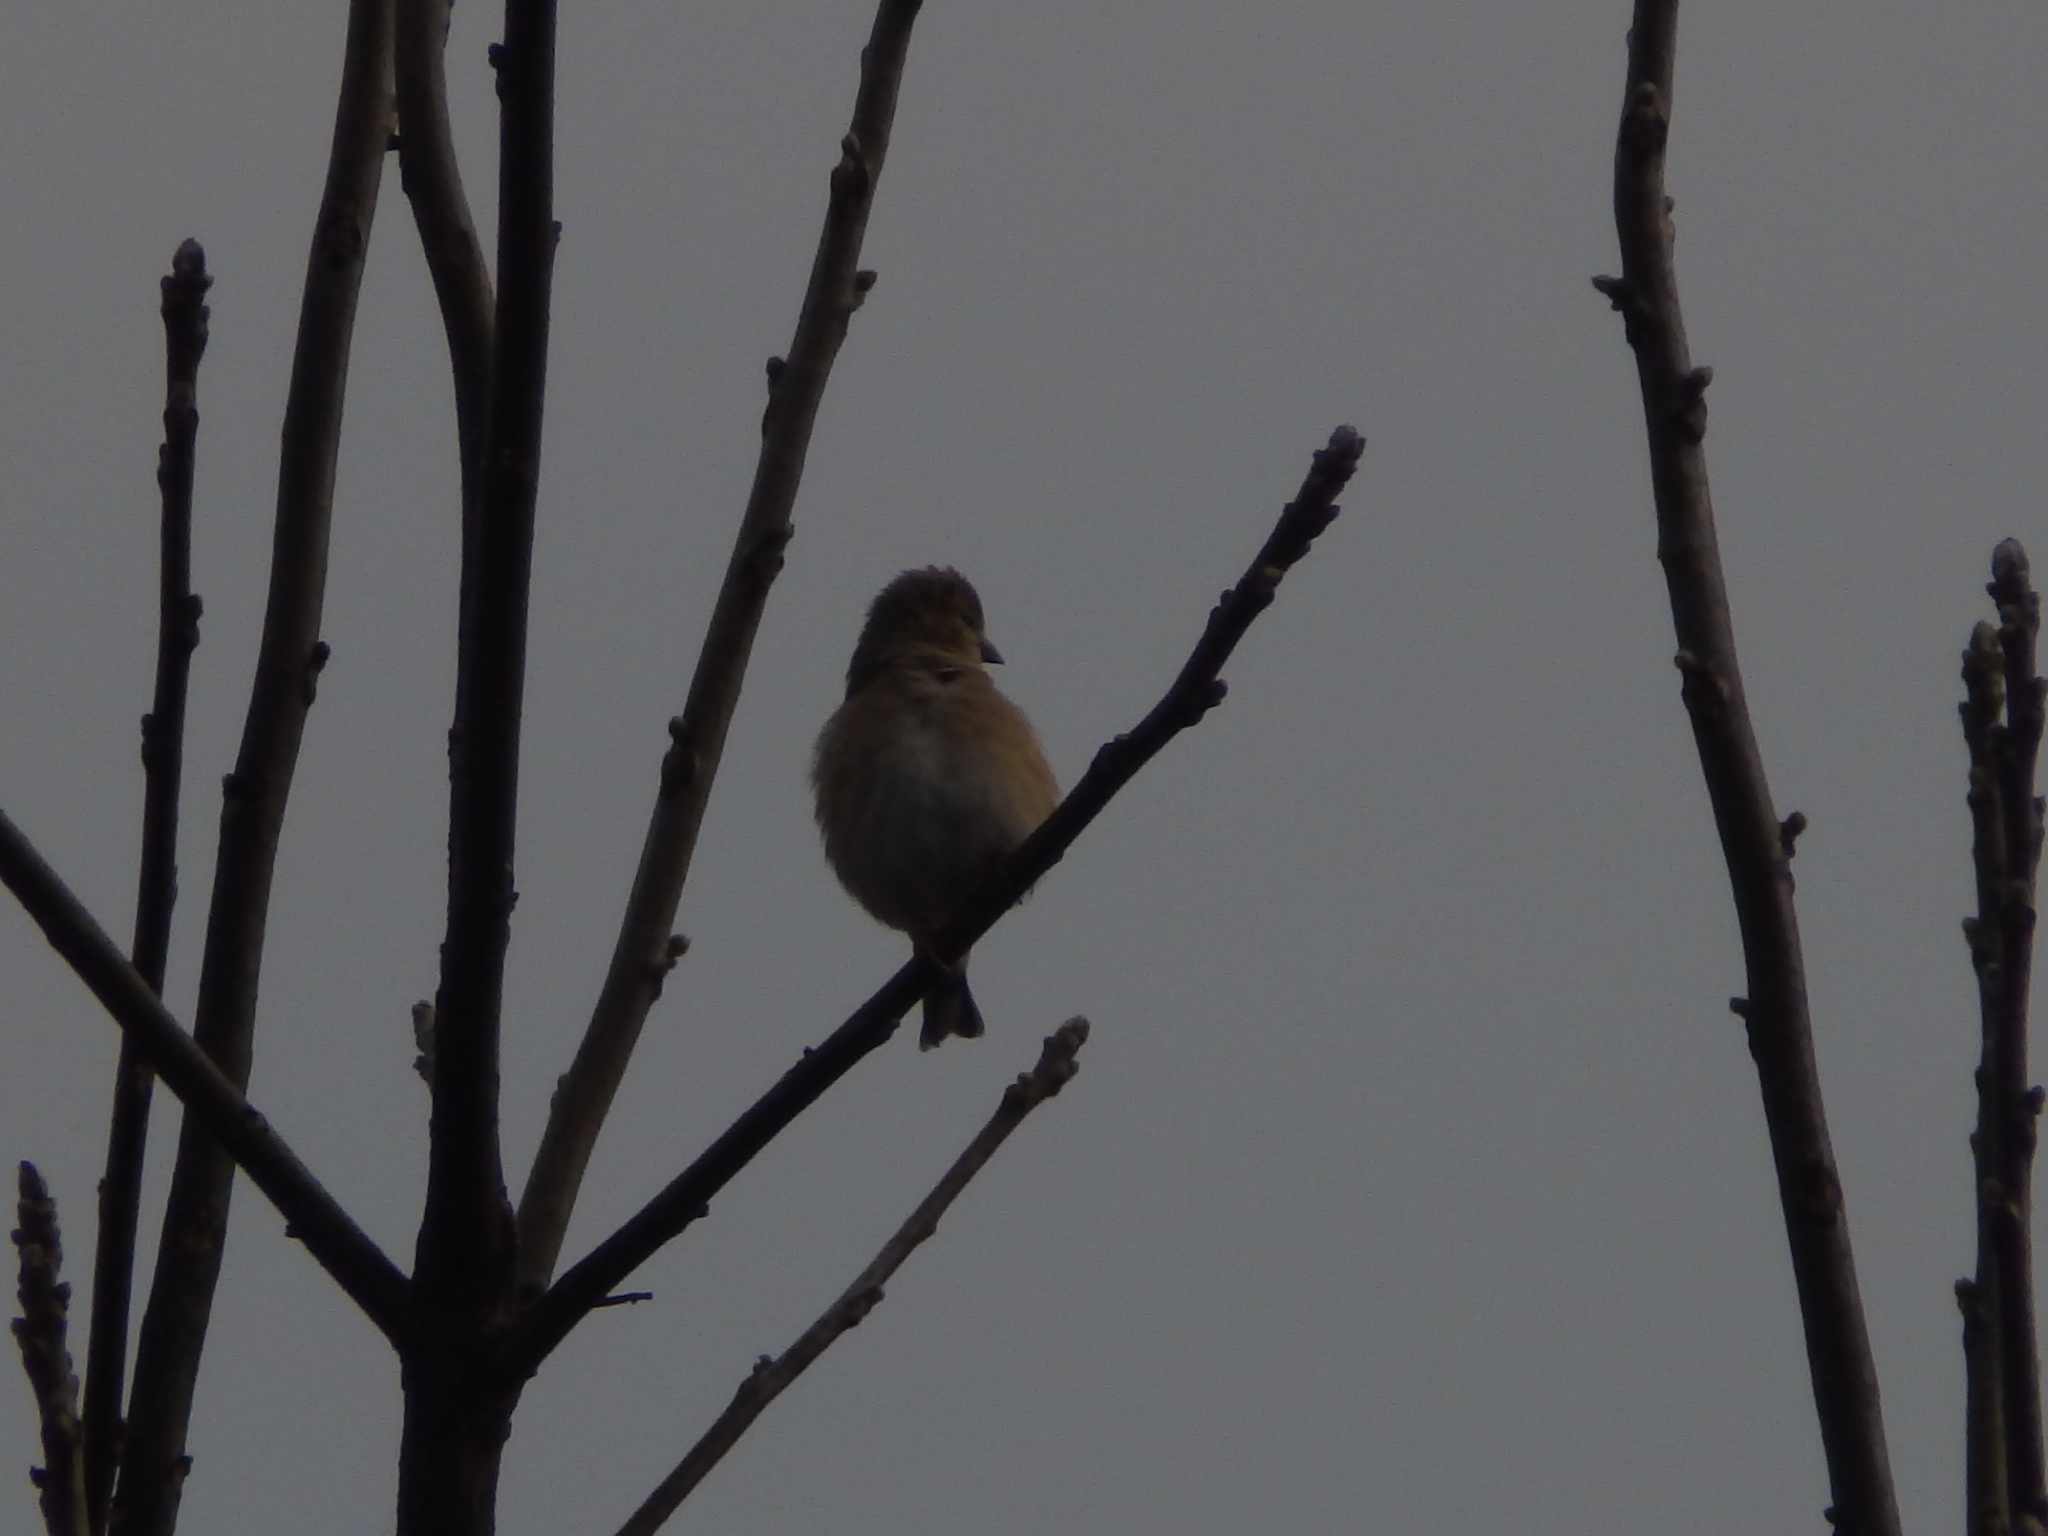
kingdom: Animalia
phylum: Chordata
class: Aves
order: Passeriformes
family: Fringillidae
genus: Spinus
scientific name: Spinus tristis
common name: American goldfinch
